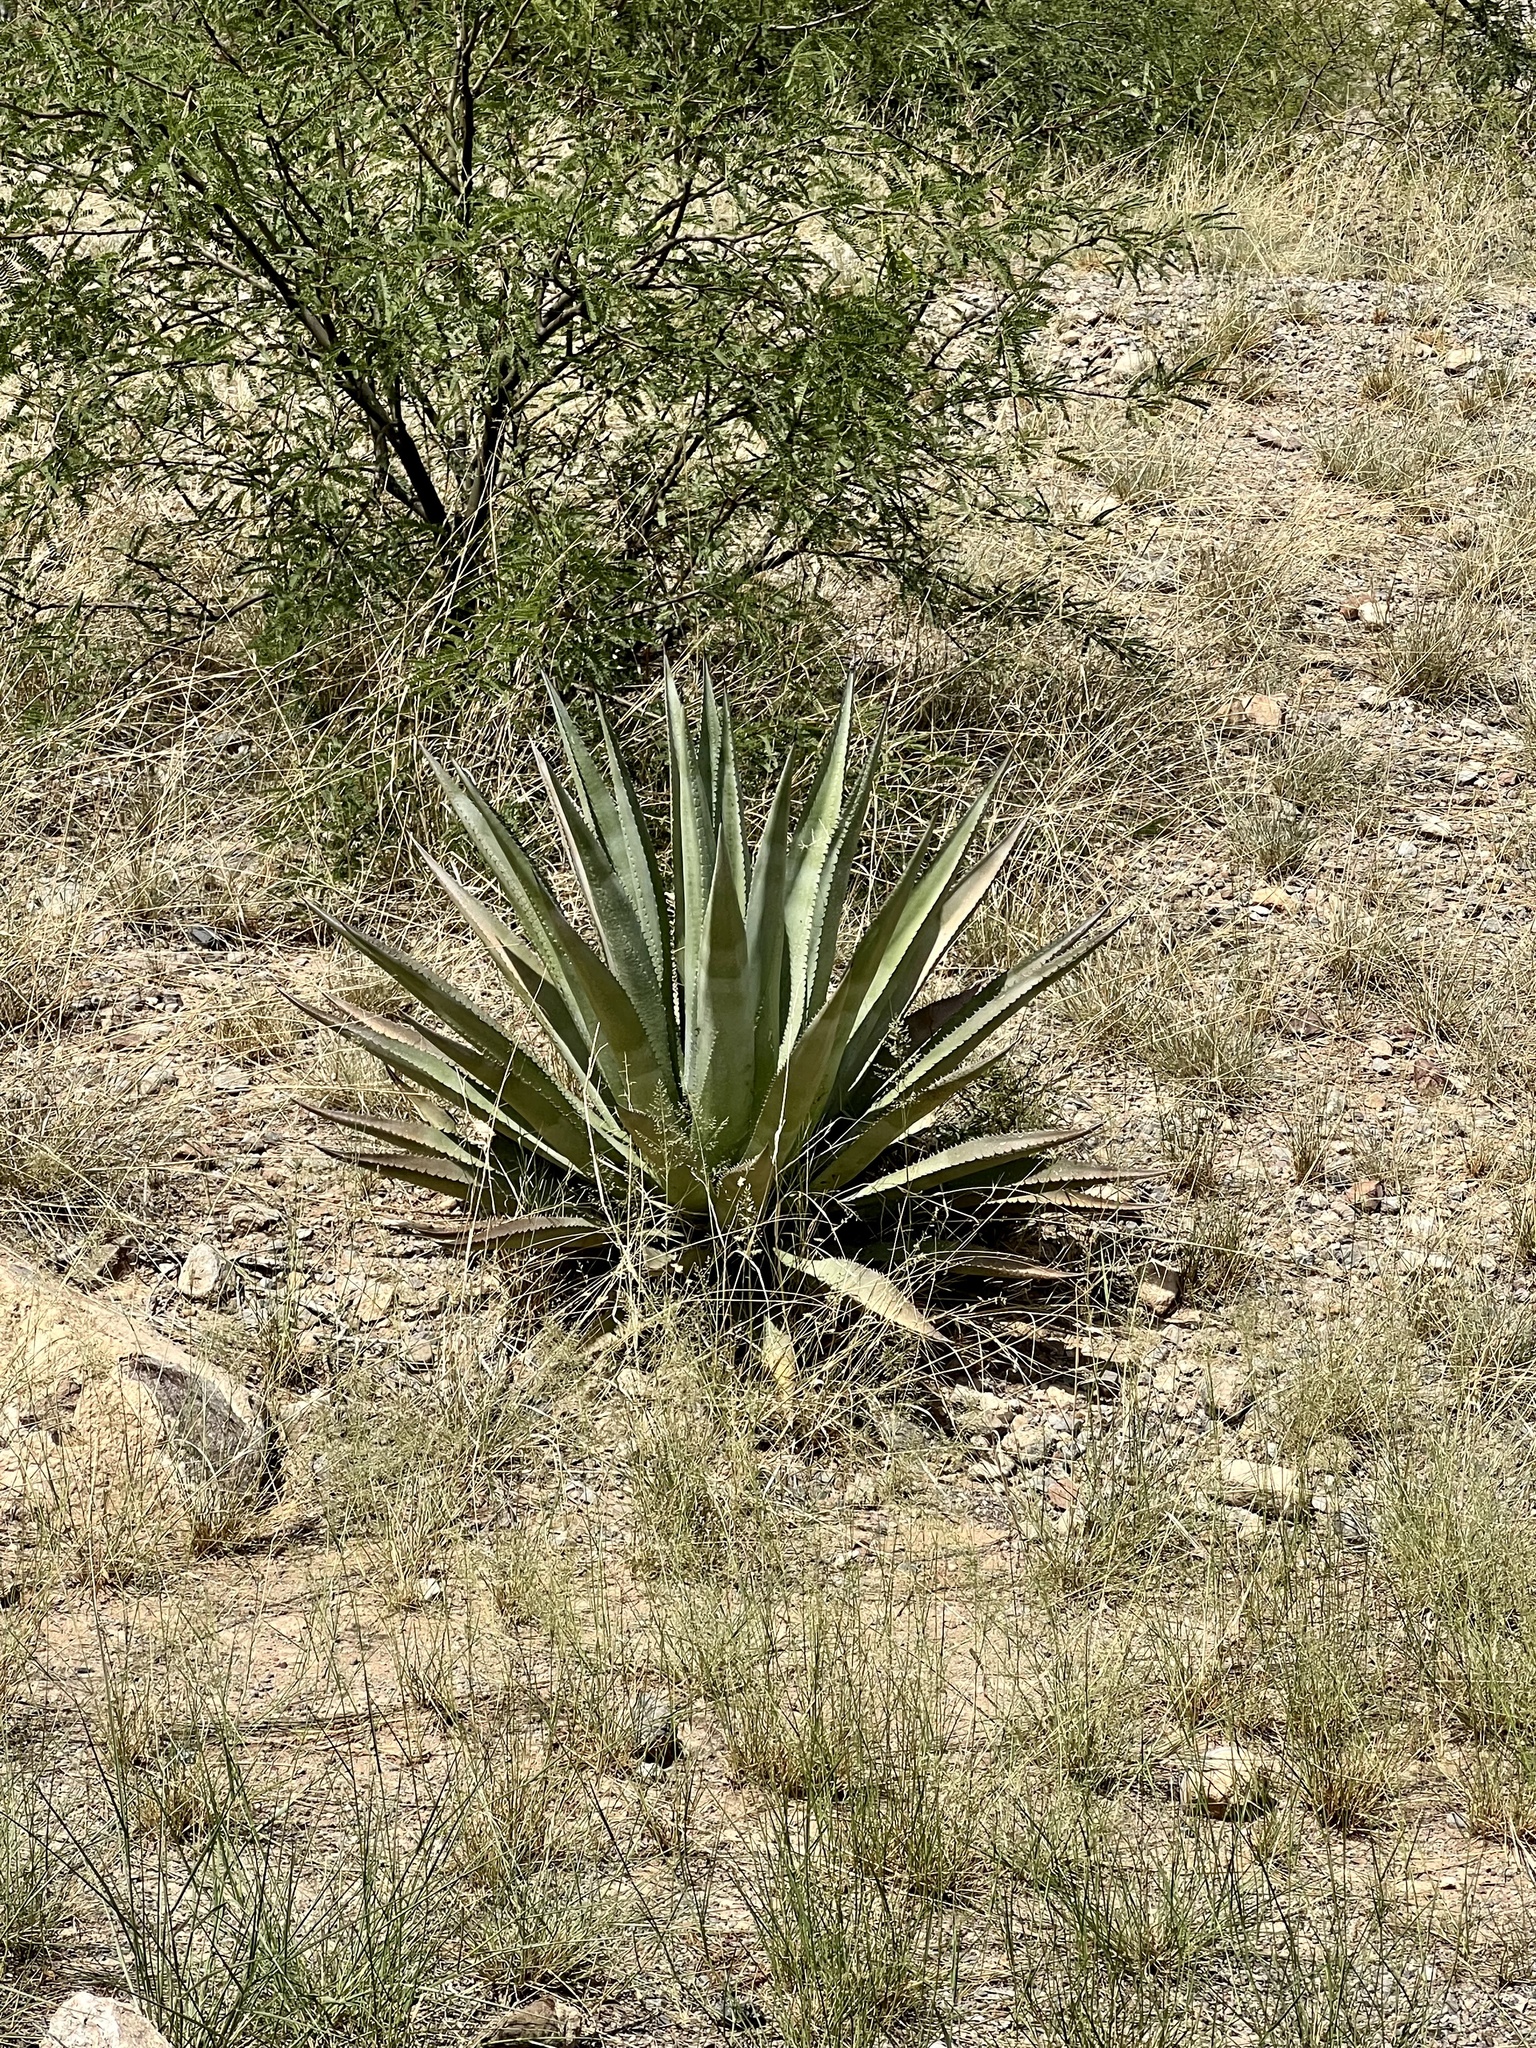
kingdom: Plantae
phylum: Tracheophyta
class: Liliopsida
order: Asparagales
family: Asparagaceae
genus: Agave
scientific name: Agave palmeri
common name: Palmer agave
